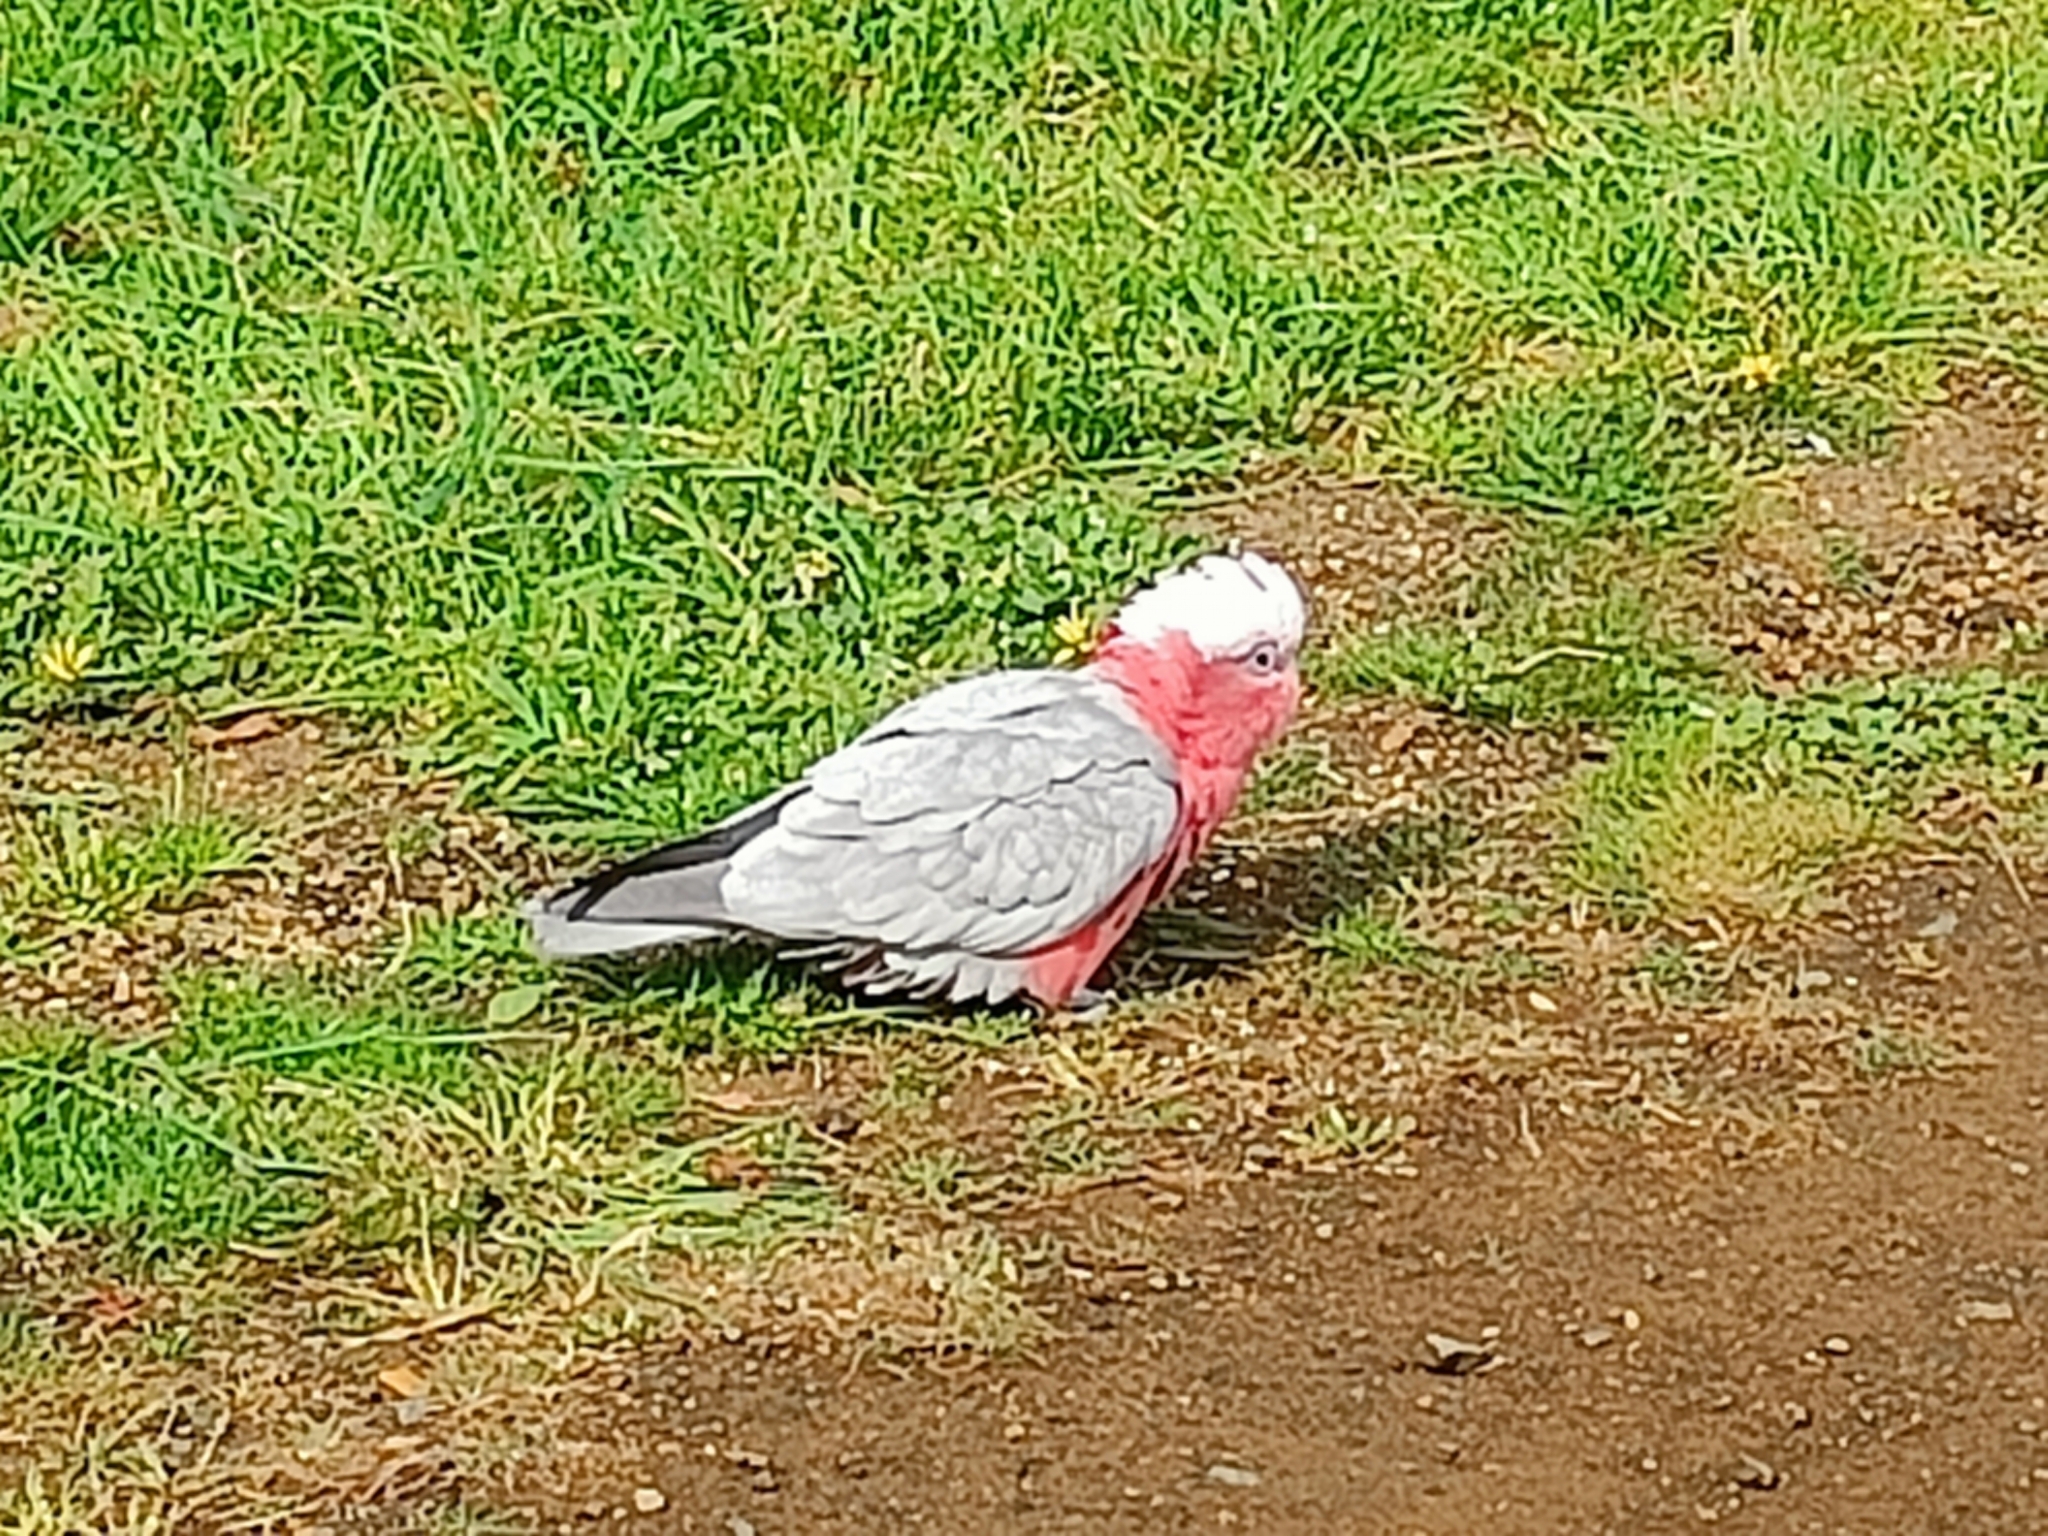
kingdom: Animalia
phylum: Chordata
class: Aves
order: Psittaciformes
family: Psittacidae
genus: Eolophus
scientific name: Eolophus roseicapilla
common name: Galah
